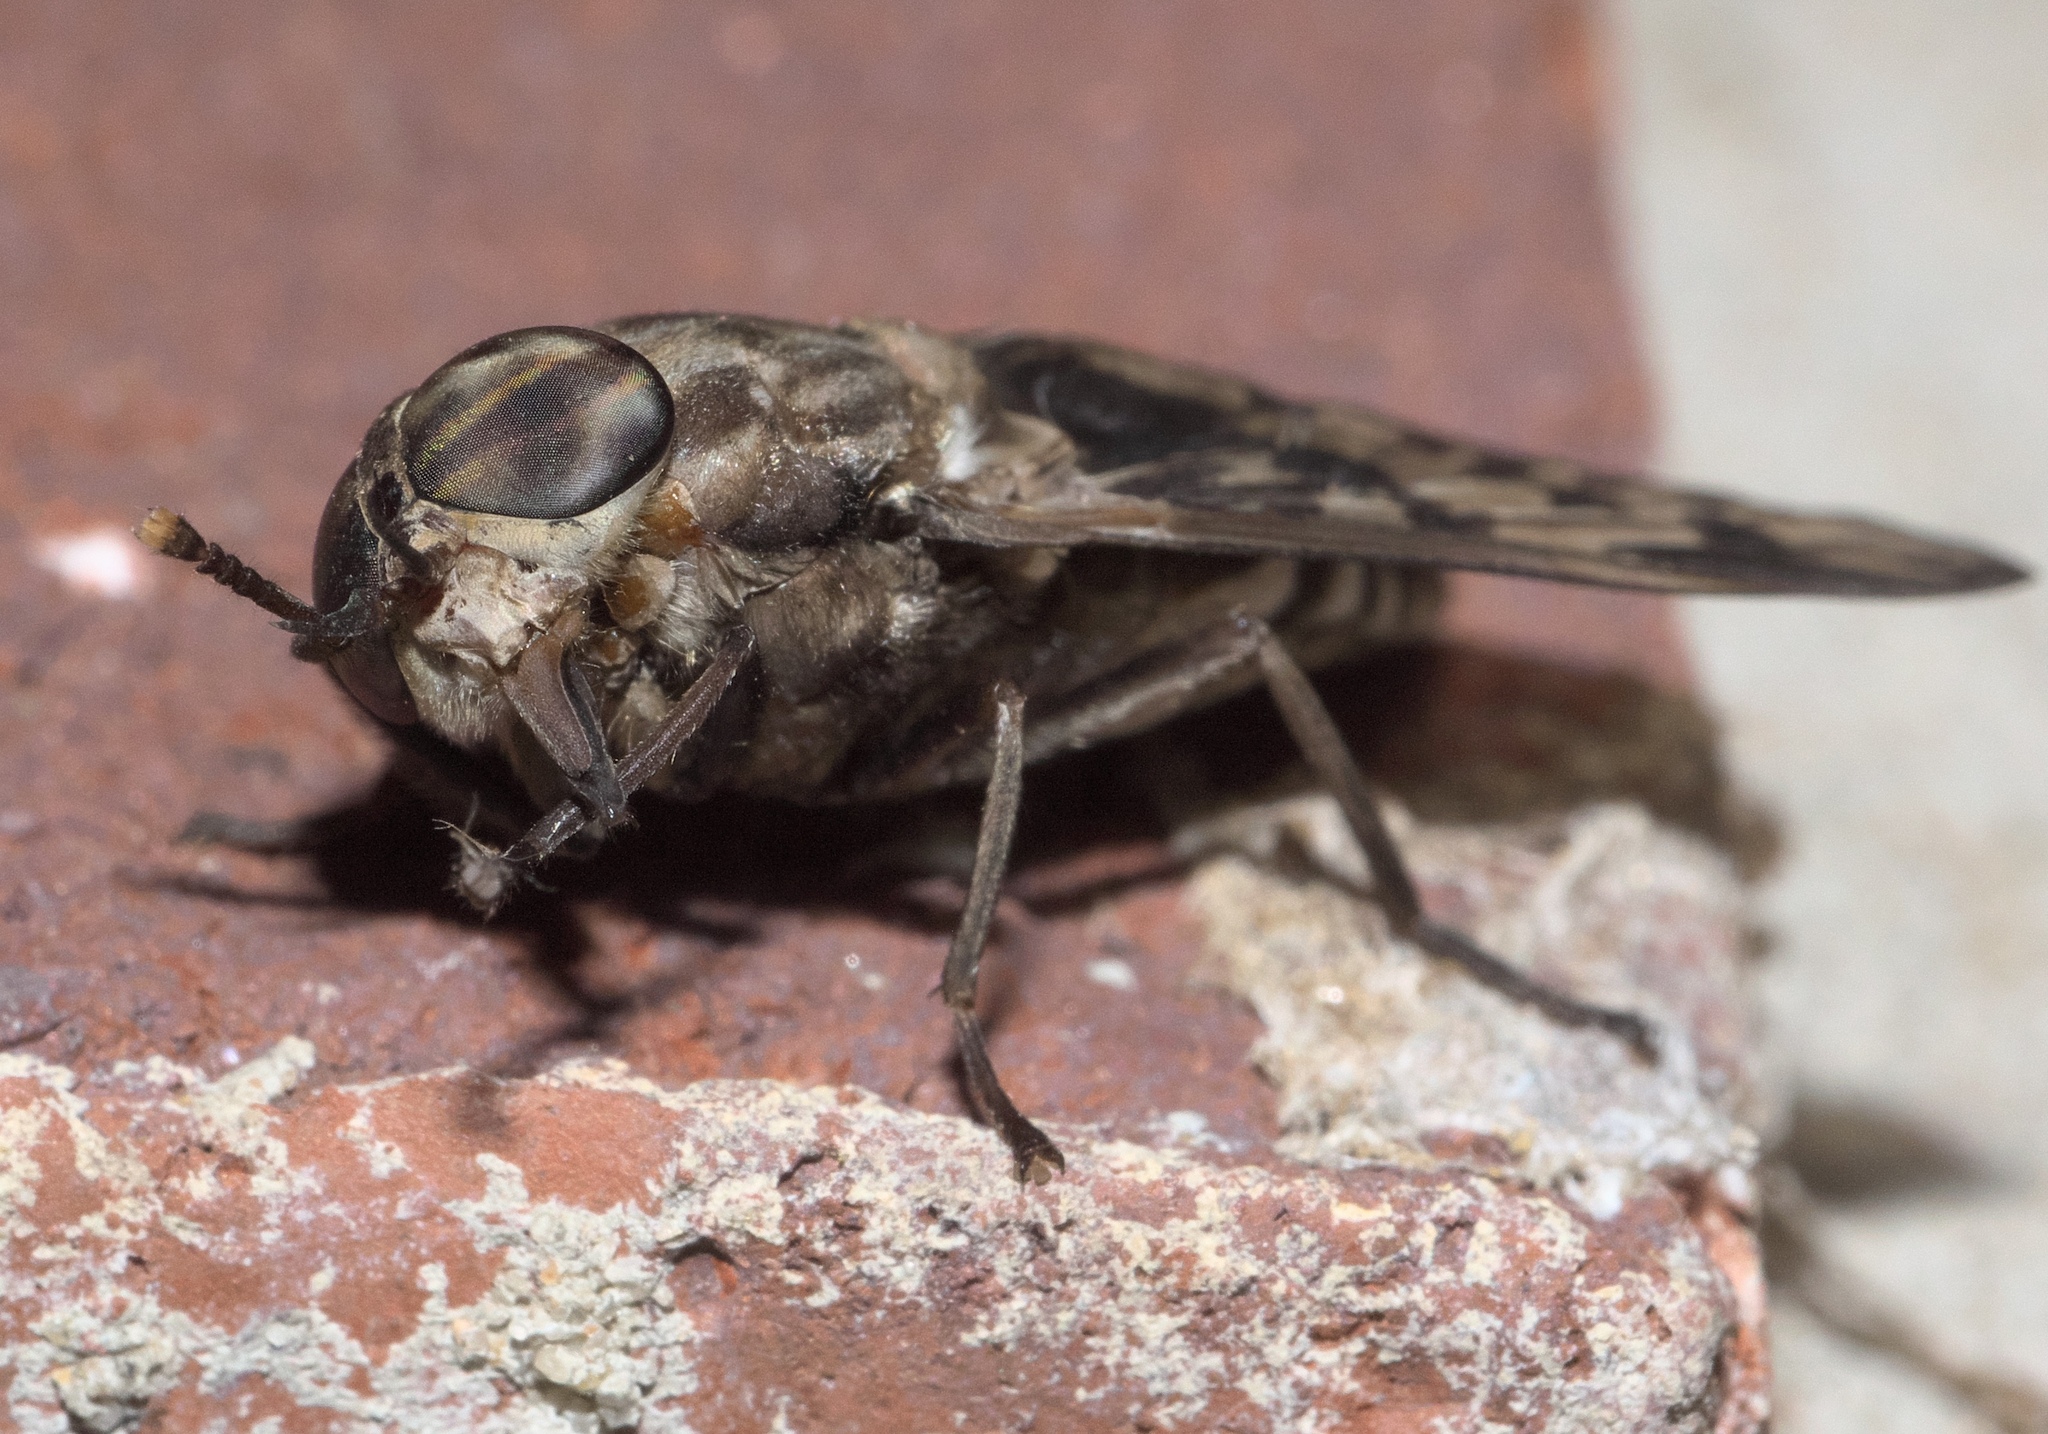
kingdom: Animalia
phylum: Arthropoda
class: Insecta
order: Diptera
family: Tabanidae
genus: Tabanus
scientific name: Tabanus venustus
